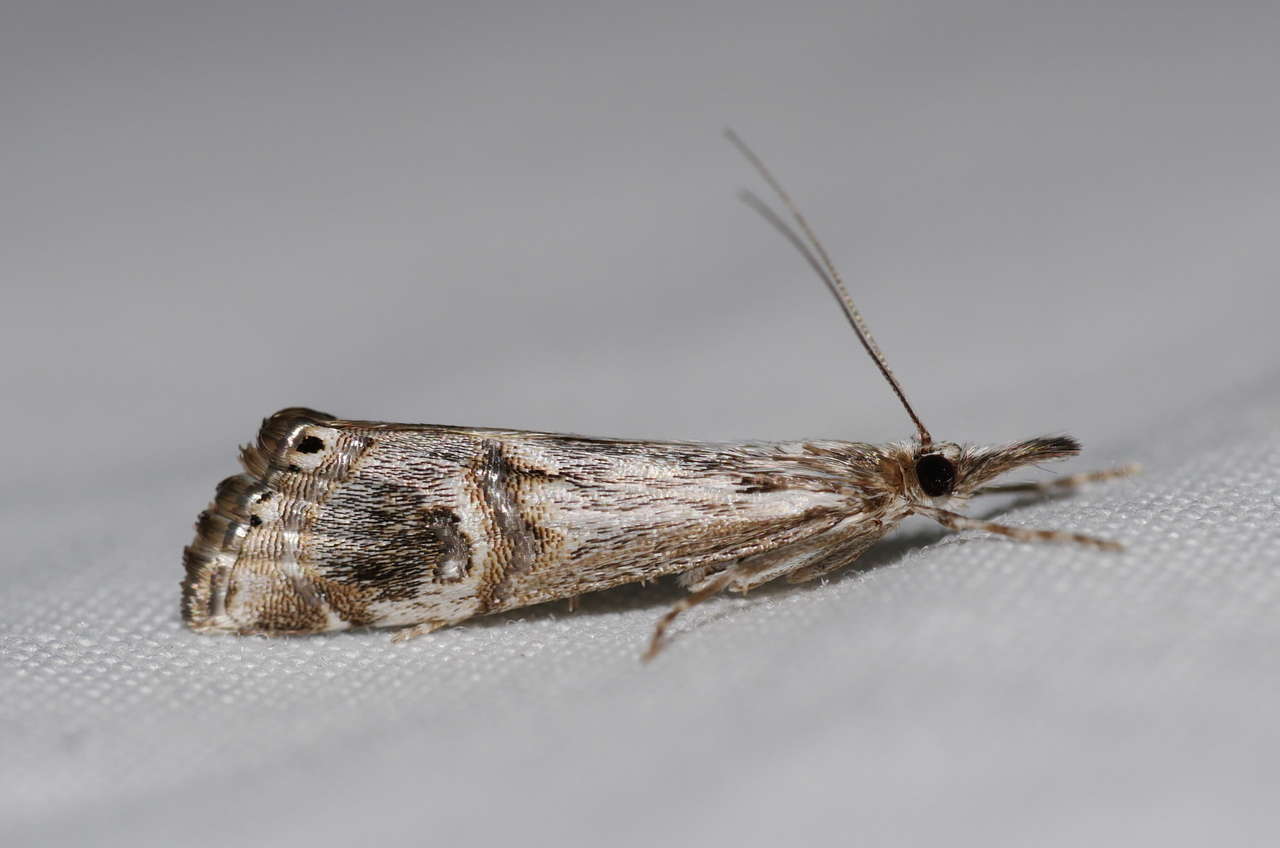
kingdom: Animalia
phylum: Arthropoda
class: Insecta
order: Lepidoptera
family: Crambidae
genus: Hednota
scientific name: Hednota longipalpella
